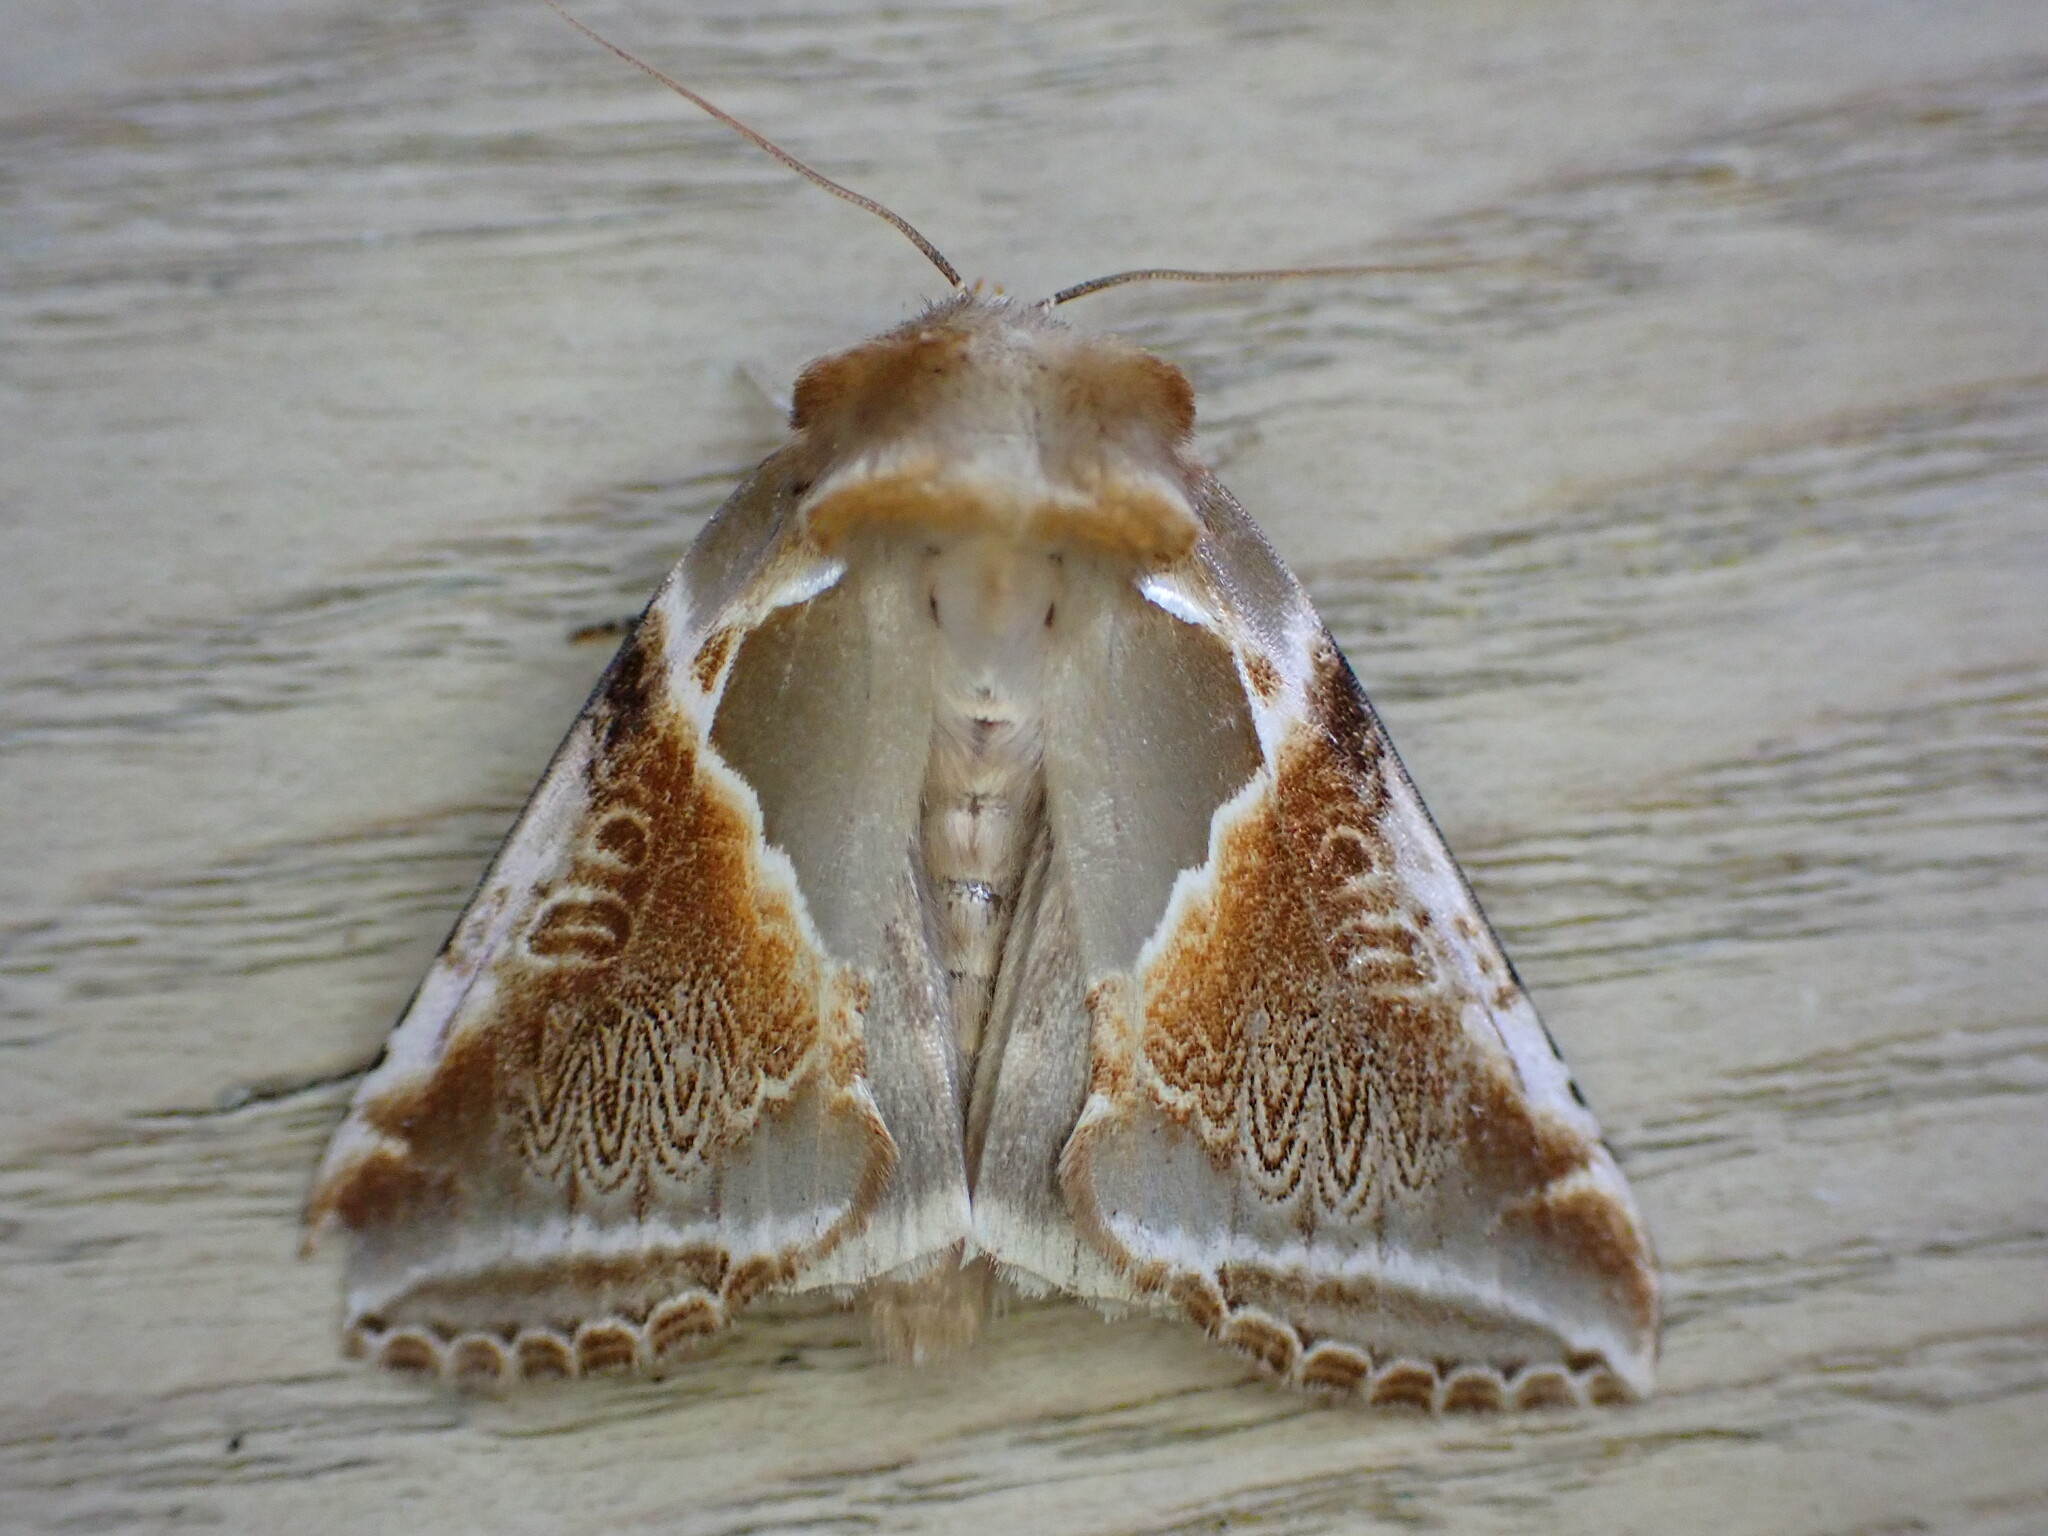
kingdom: Animalia
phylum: Arthropoda
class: Insecta
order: Lepidoptera
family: Drepanidae
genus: Habrosyne
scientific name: Habrosyne pyritoides
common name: Buff arches
